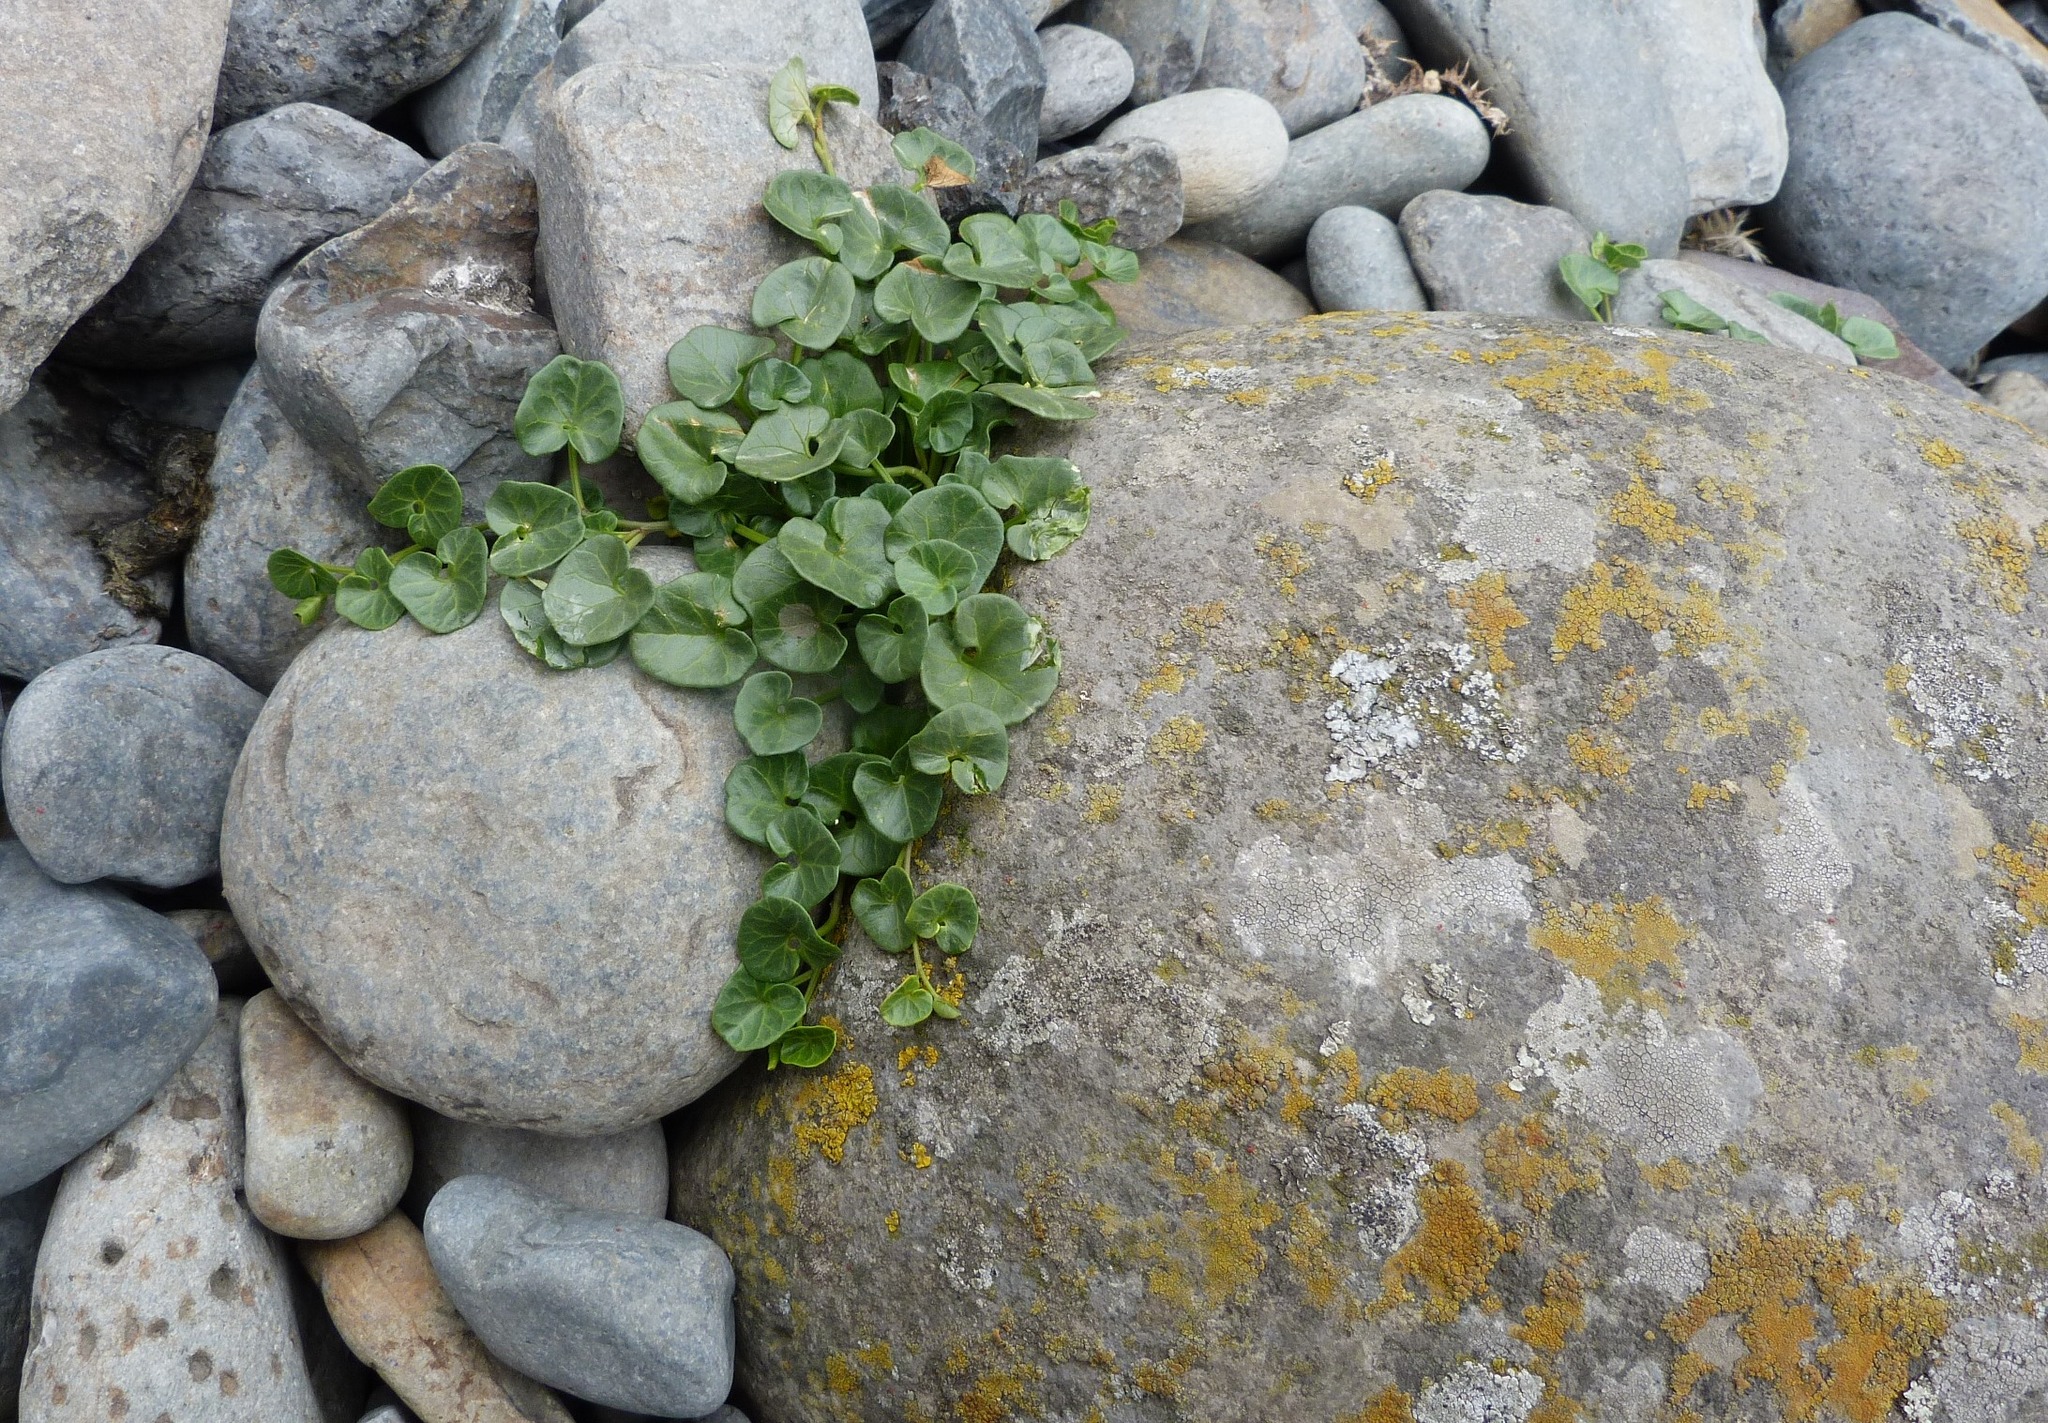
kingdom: Plantae
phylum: Tracheophyta
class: Magnoliopsida
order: Solanales
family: Convolvulaceae
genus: Calystegia
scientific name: Calystegia soldanella
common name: Sea bindweed
